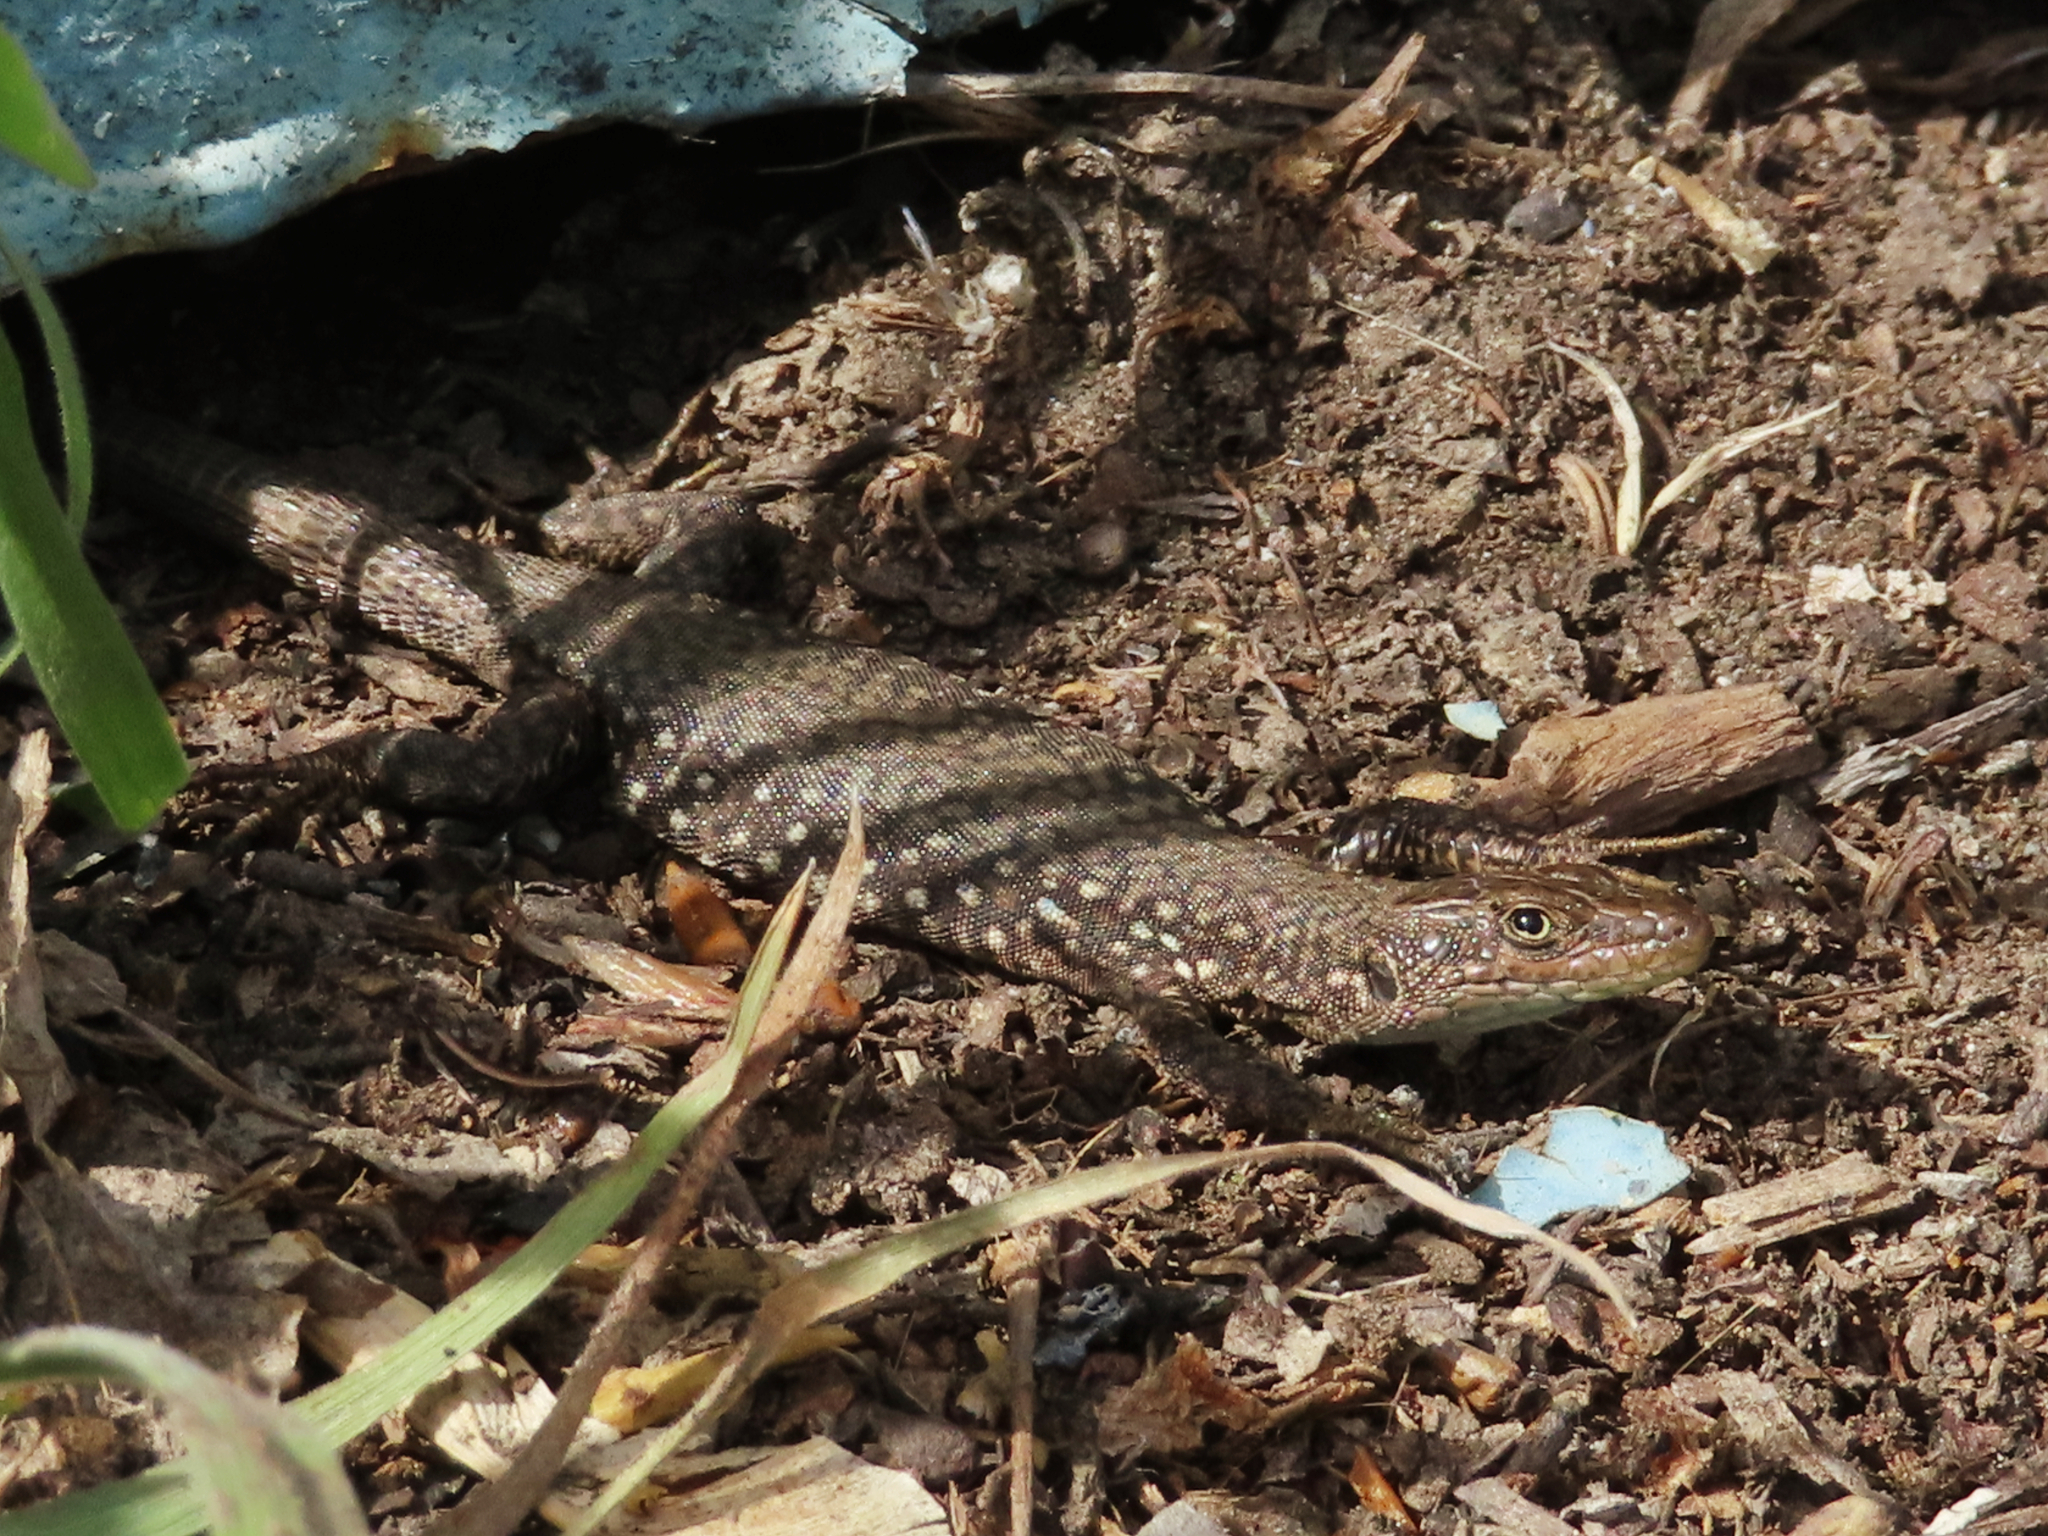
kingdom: Animalia
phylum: Chordata
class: Squamata
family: Lacertidae
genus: Darevskia
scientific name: Darevskia
